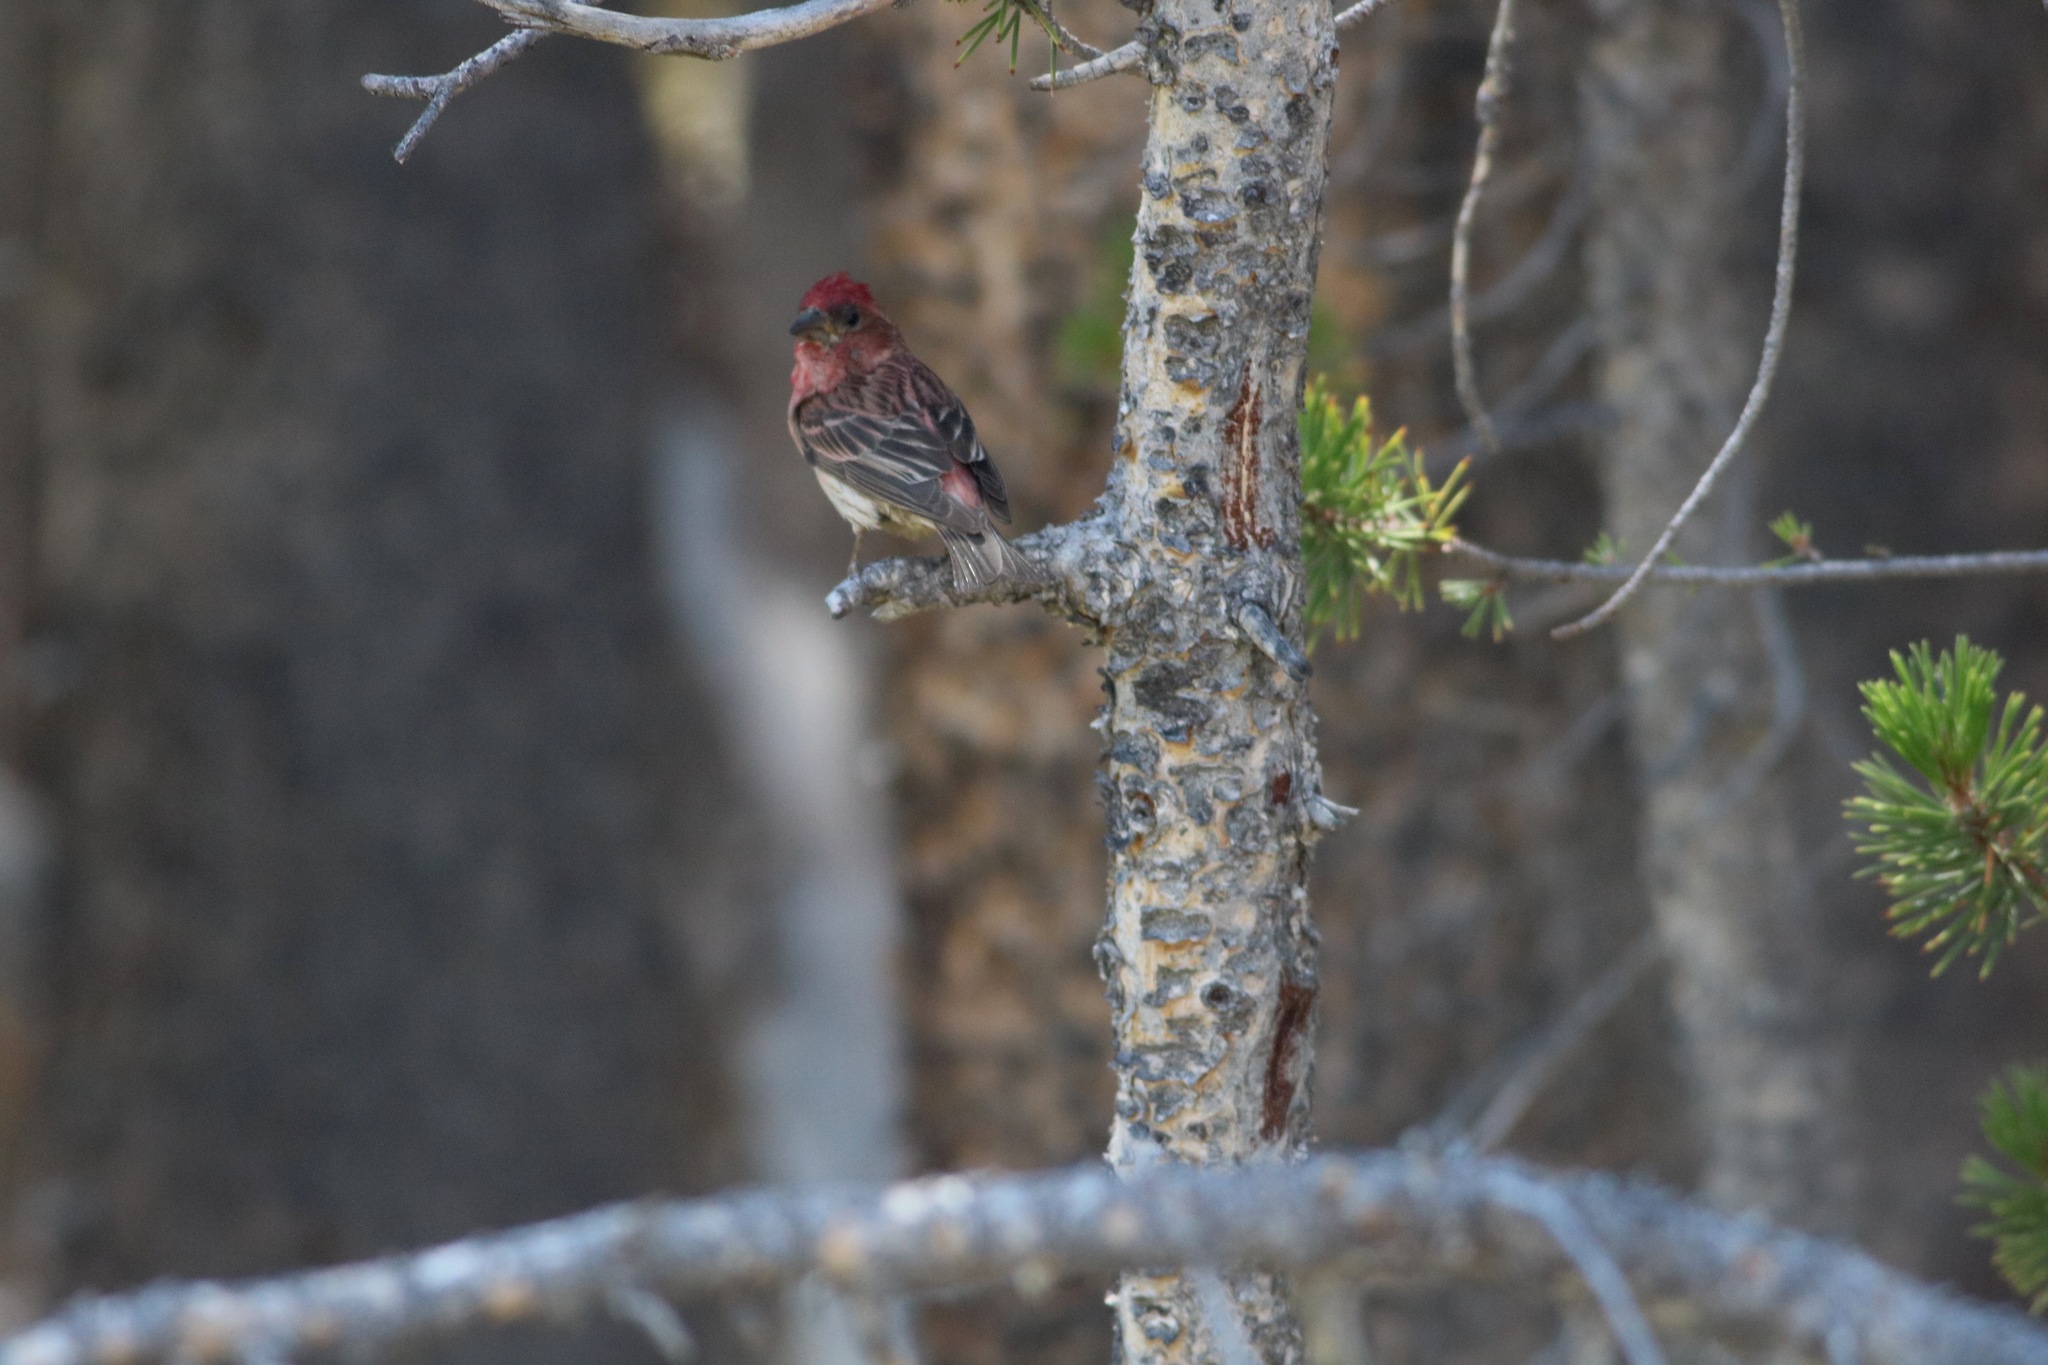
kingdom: Animalia
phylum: Chordata
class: Aves
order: Passeriformes
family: Fringillidae
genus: Haemorhous
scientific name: Haemorhous cassinii
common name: Cassin's finch
